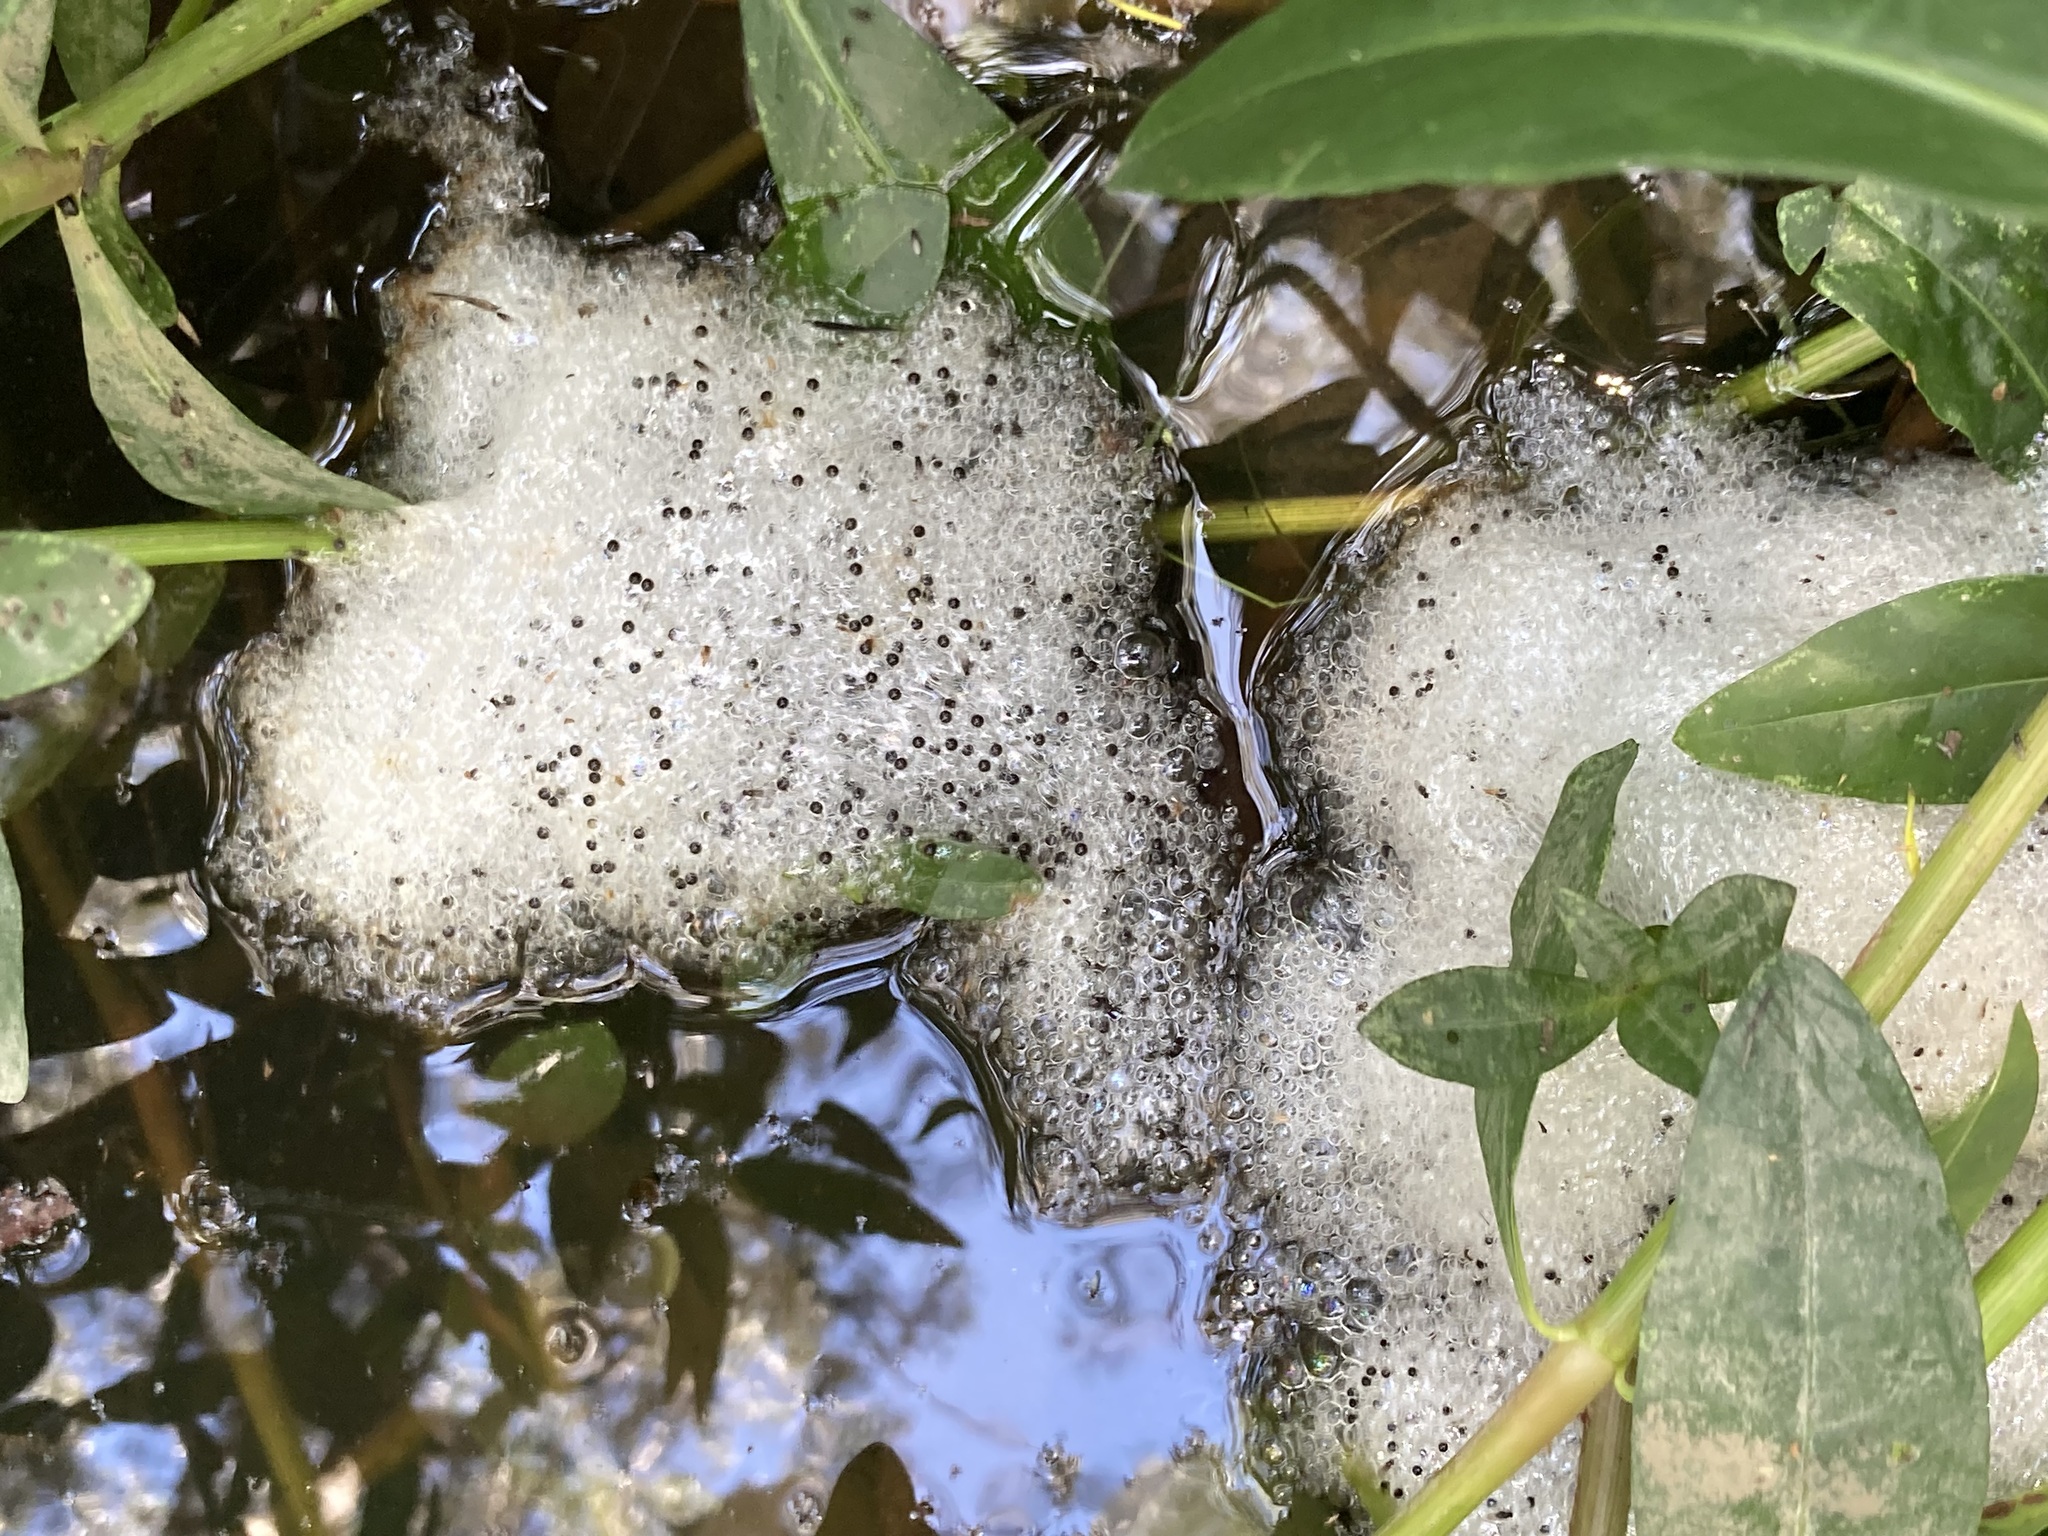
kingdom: Animalia
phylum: Chordata
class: Amphibia
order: Anura
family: Limnodynastidae
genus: Limnodynastes
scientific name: Limnodynastes peronii
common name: Brown frog
